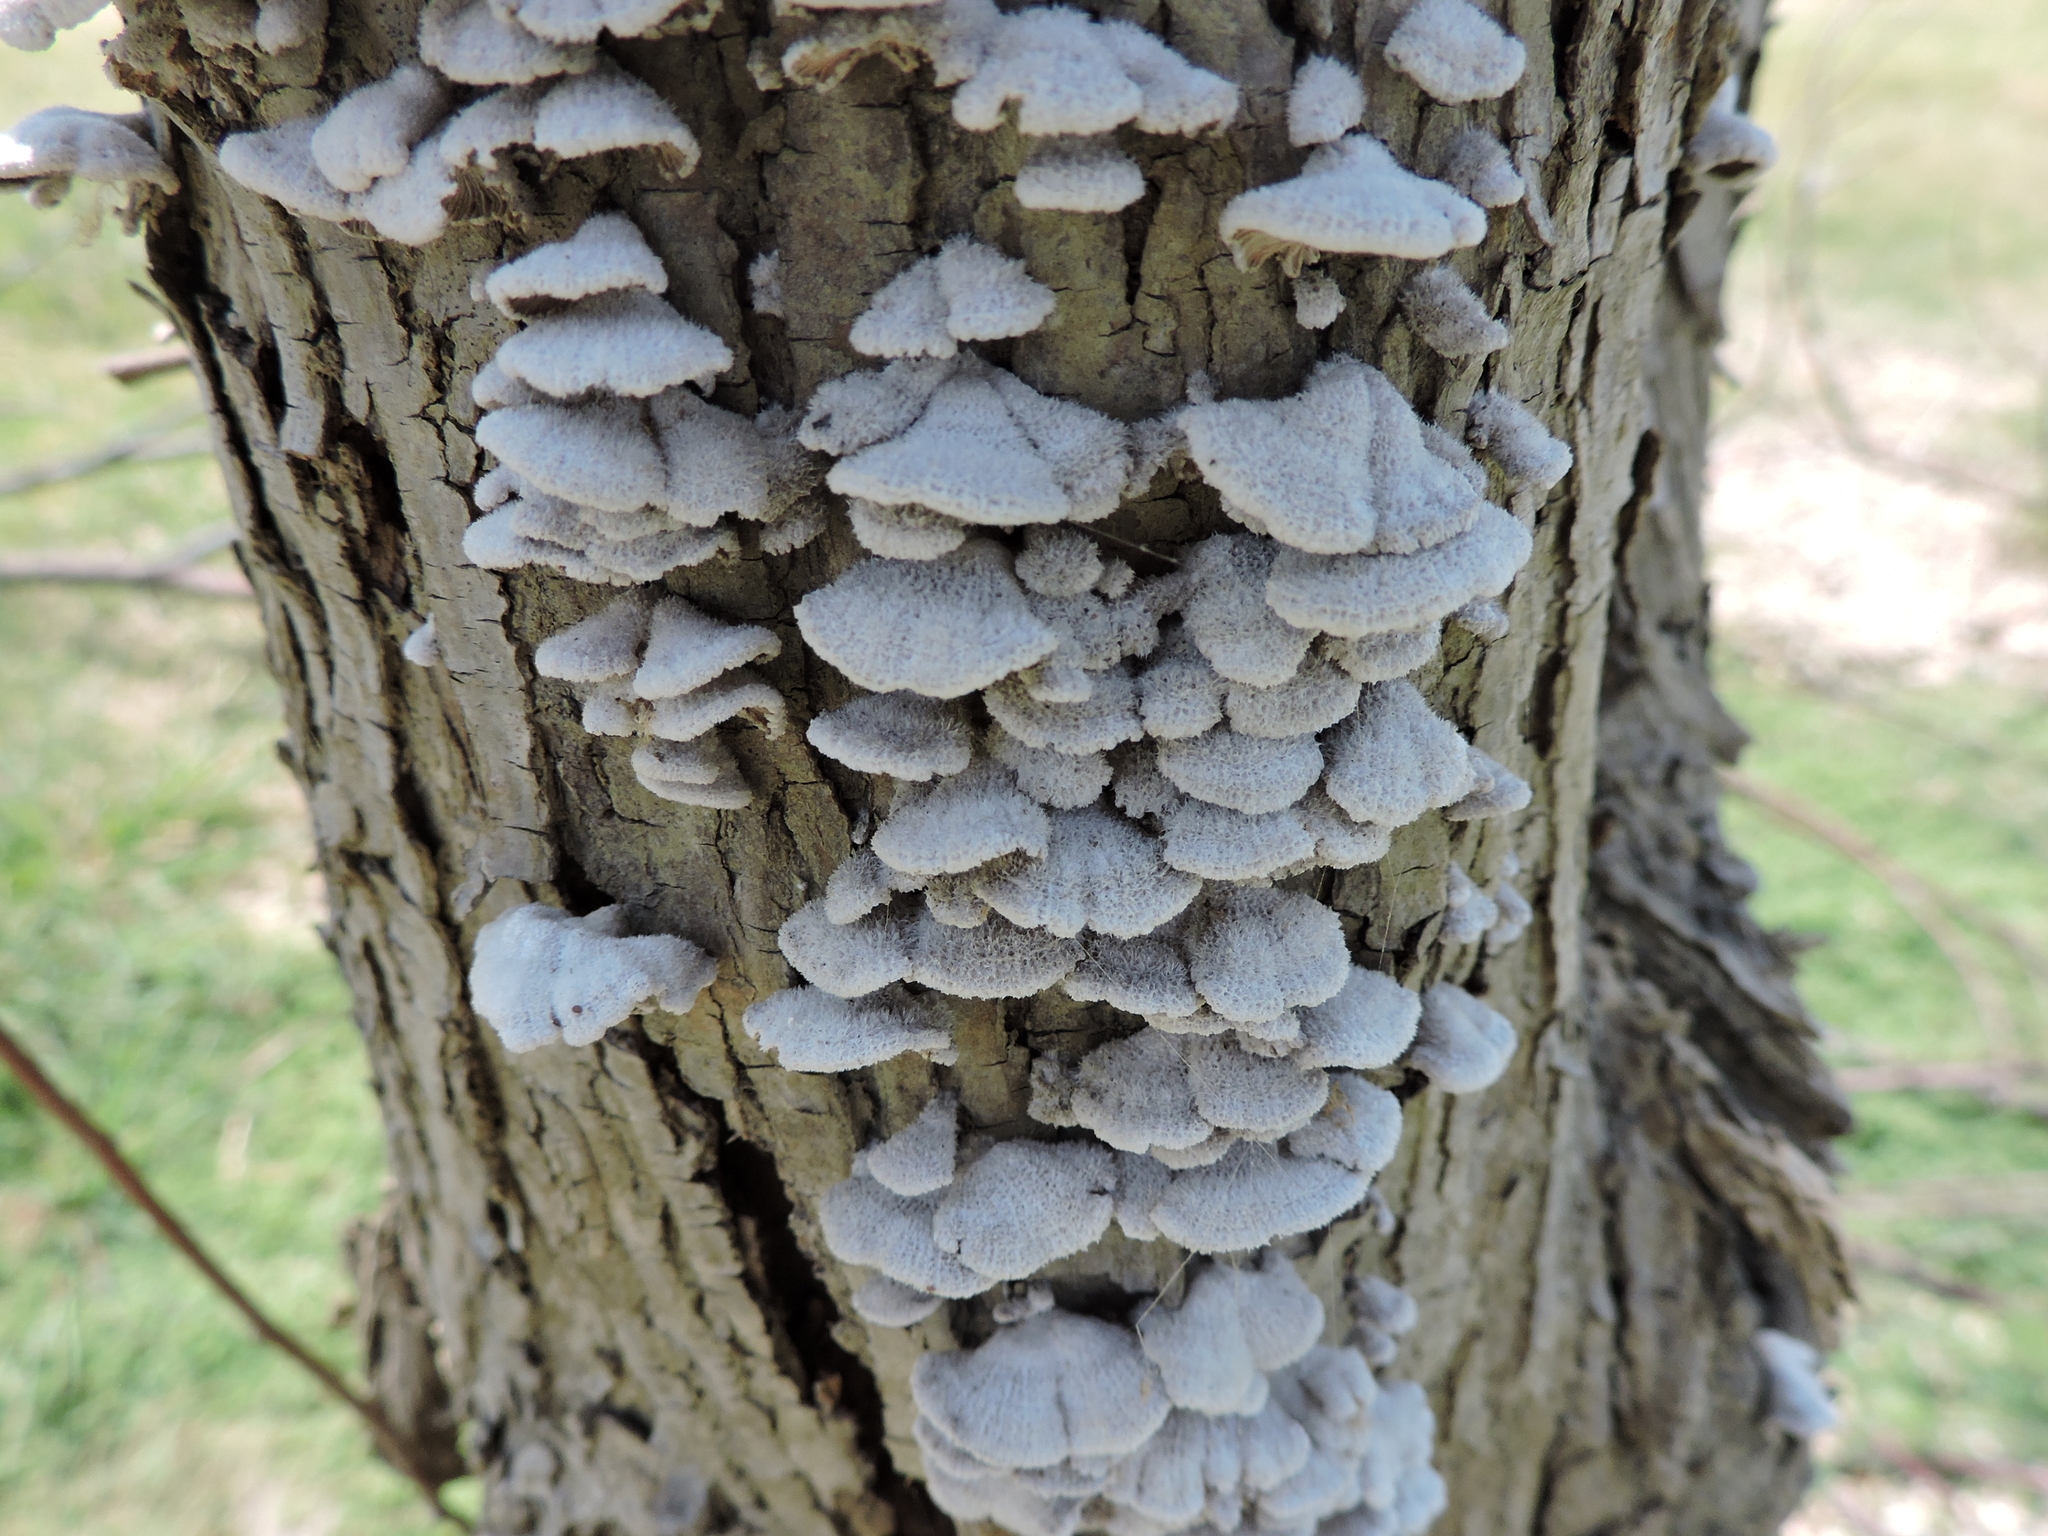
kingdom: Fungi
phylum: Basidiomycota
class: Agaricomycetes
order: Agaricales
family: Schizophyllaceae
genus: Schizophyllum
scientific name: Schizophyllum commune
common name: Common porecrust
